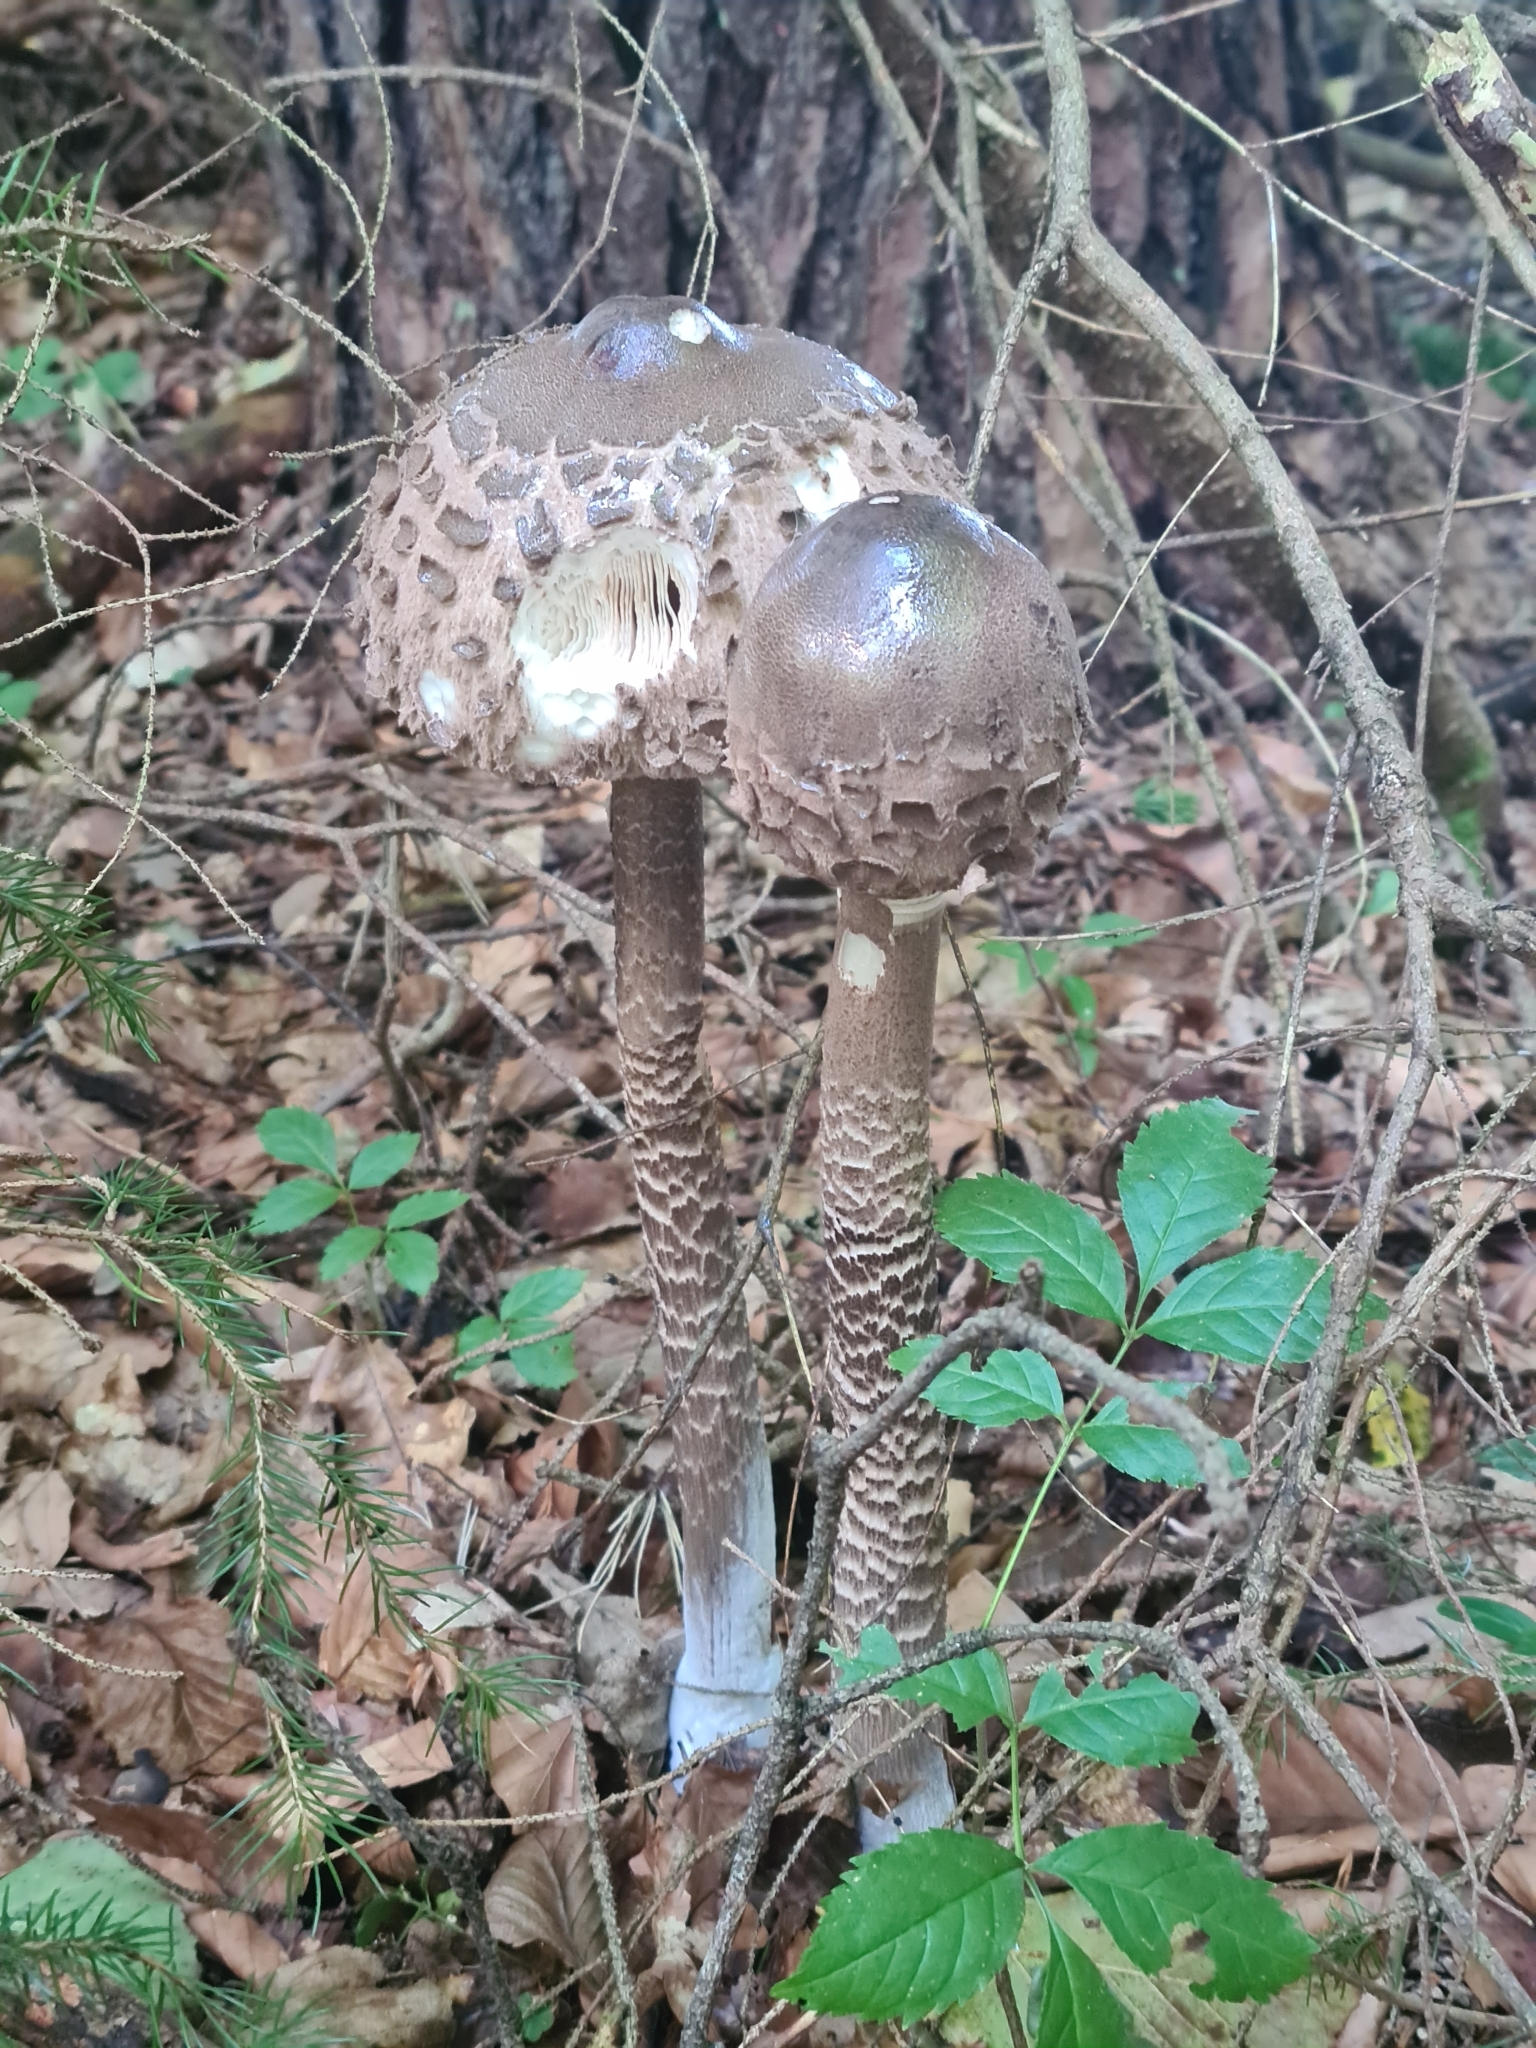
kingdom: Fungi
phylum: Basidiomycota
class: Agaricomycetes
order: Agaricales
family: Agaricaceae
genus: Macrolepiota
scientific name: Macrolepiota procera
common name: Parasol
